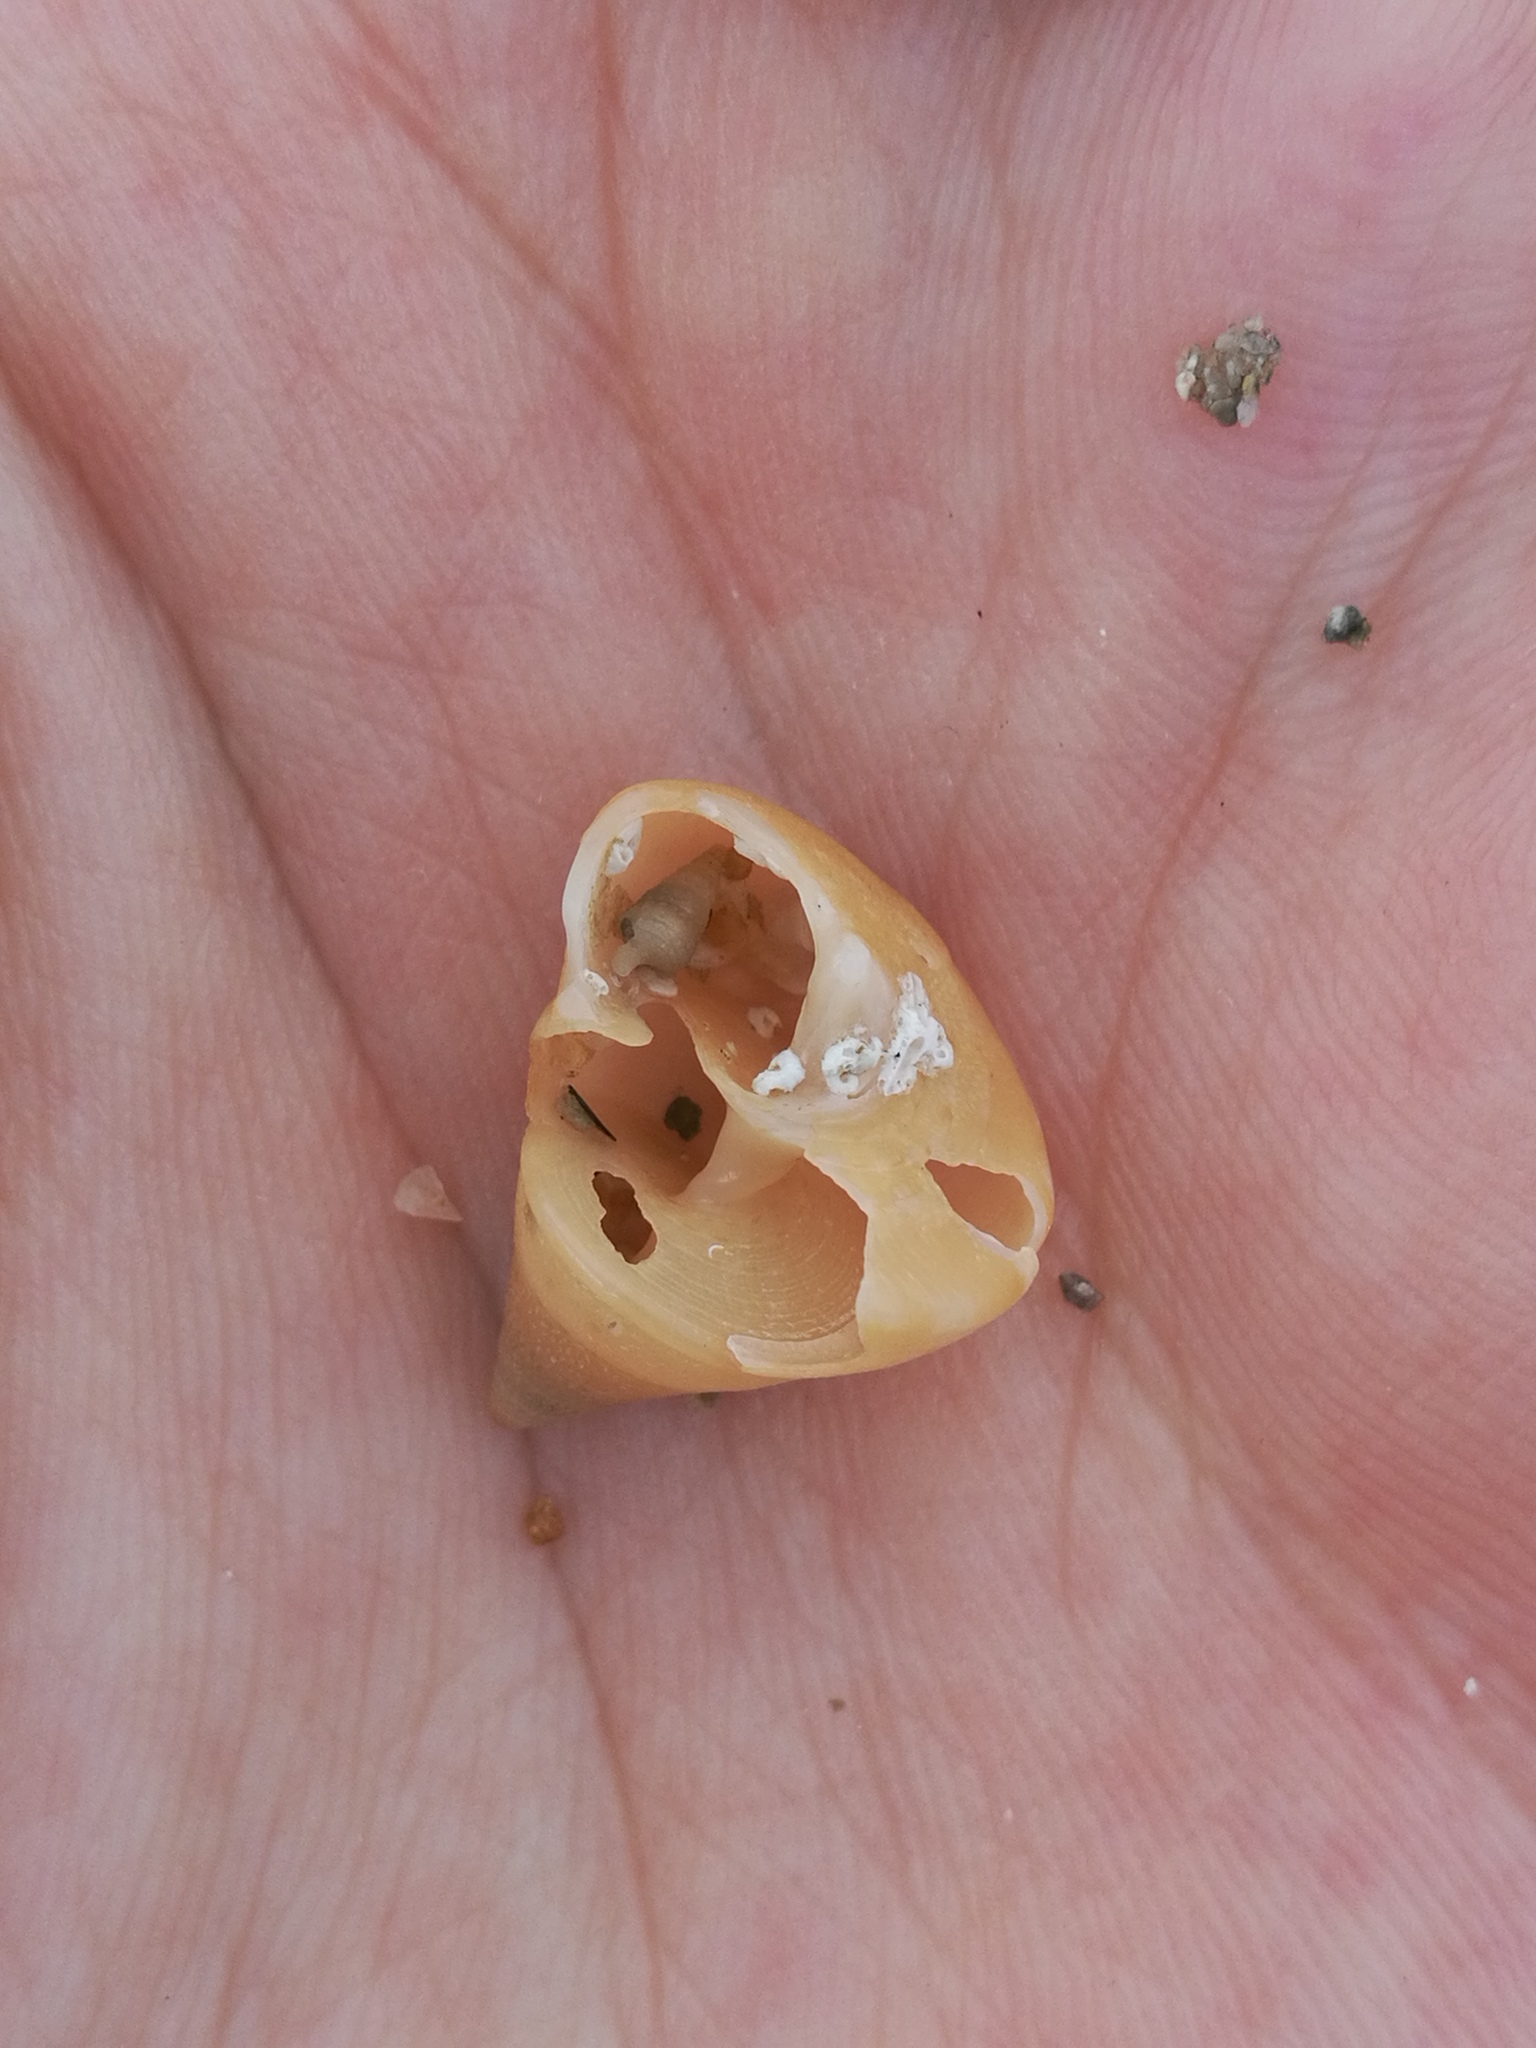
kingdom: Animalia
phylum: Mollusca
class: Gastropoda
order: Trochida
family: Calliostomatidae
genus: Calliostoma
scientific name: Calliostoma conulus
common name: Rusty topsnail
